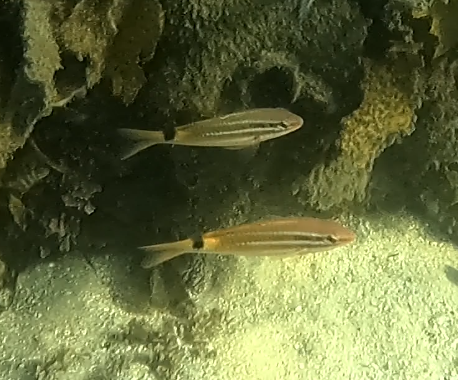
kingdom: Animalia
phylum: Chordata
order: Perciformes
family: Mullidae
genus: Parupeneus
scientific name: Parupeneus spilurus
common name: Blackspot goatfish
